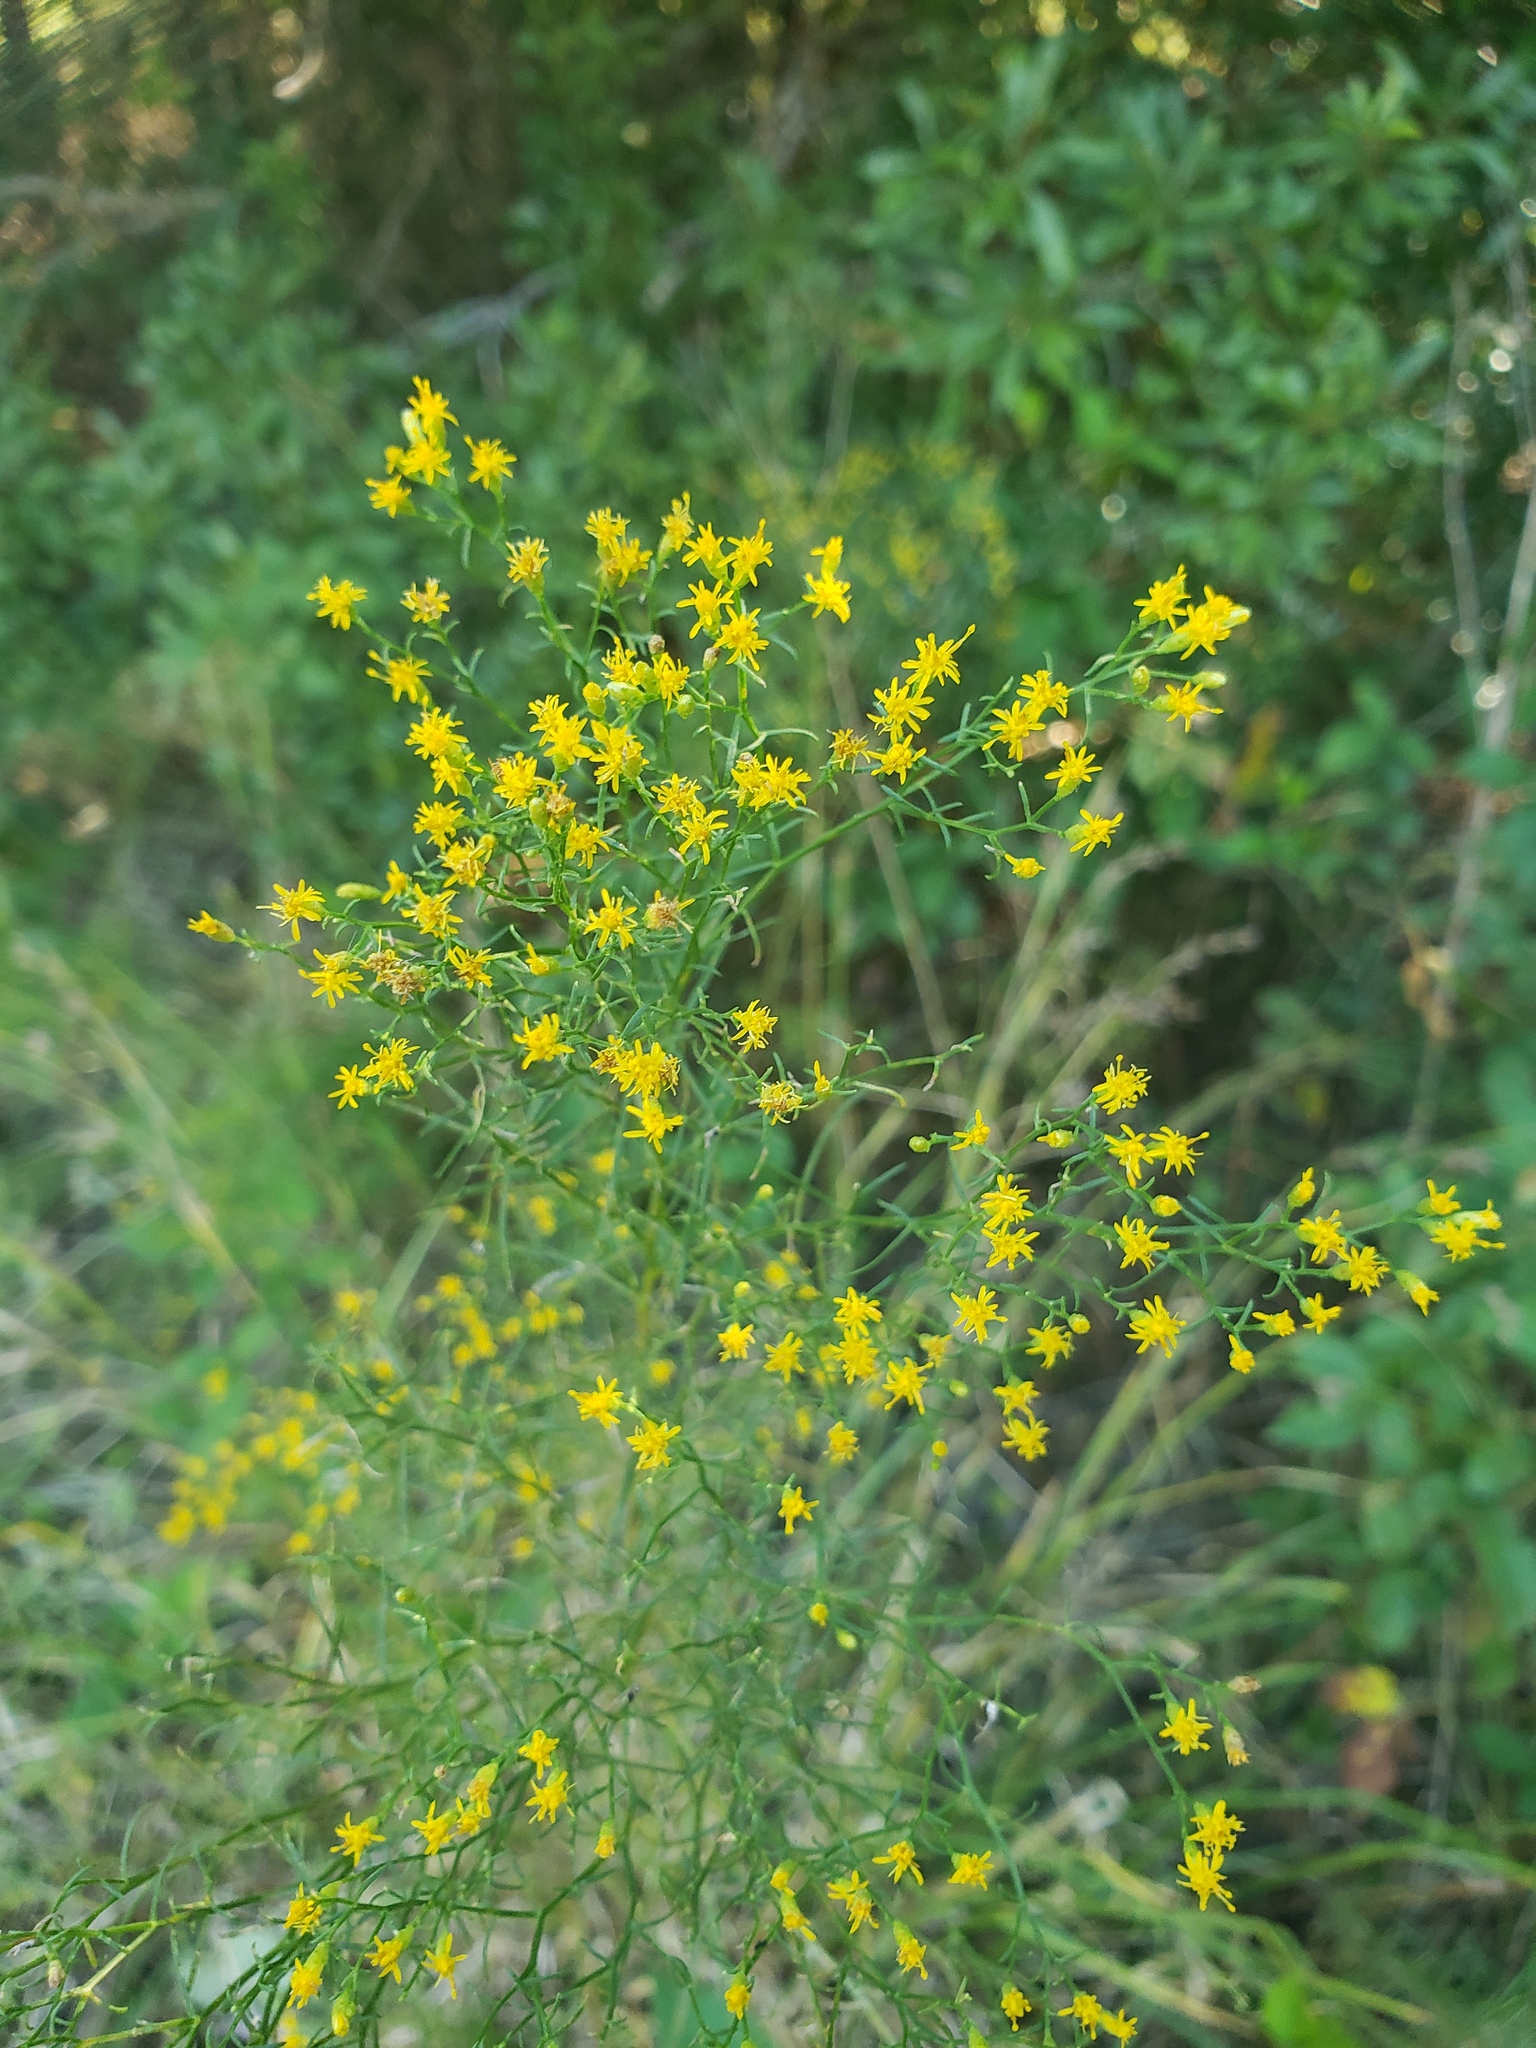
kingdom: Plantae
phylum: Tracheophyta
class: Magnoliopsida
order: Asterales
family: Asteraceae
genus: Euthamia
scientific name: Euthamia caroliniana
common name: Coastal plain goldentop
